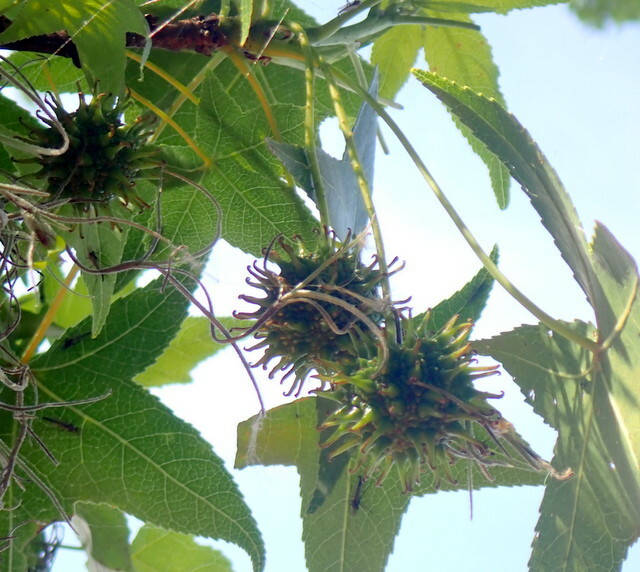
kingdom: Plantae
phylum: Tracheophyta
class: Magnoliopsida
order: Saxifragales
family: Altingiaceae
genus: Liquidambar
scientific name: Liquidambar styraciflua
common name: Sweet gum
